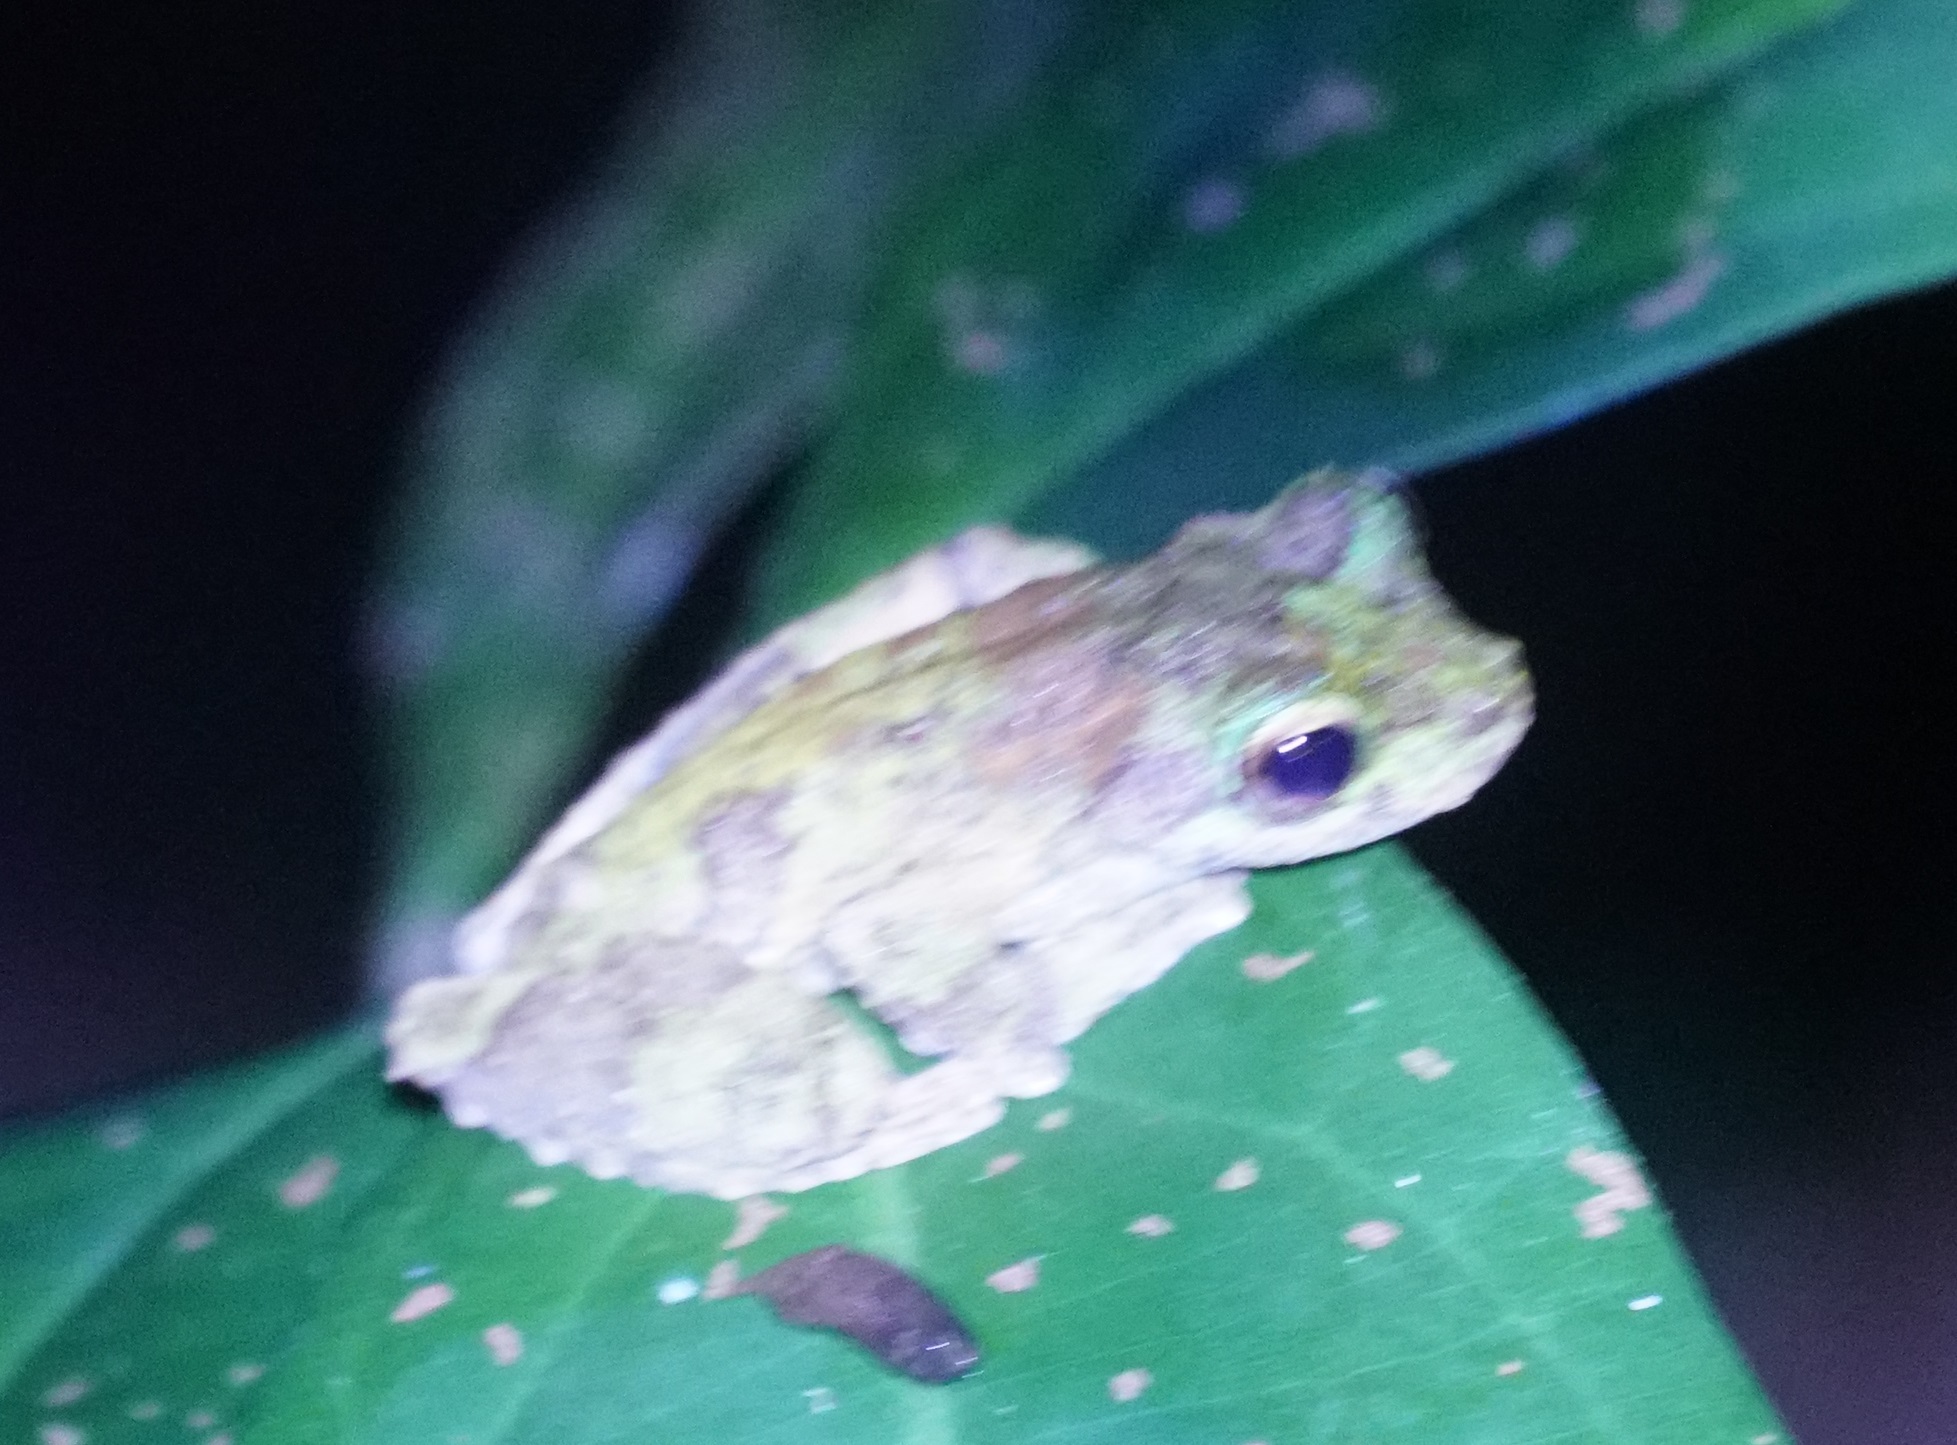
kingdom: Animalia
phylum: Chordata
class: Amphibia
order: Anura
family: Hylidae
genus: Ranoidea
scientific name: Ranoidea
